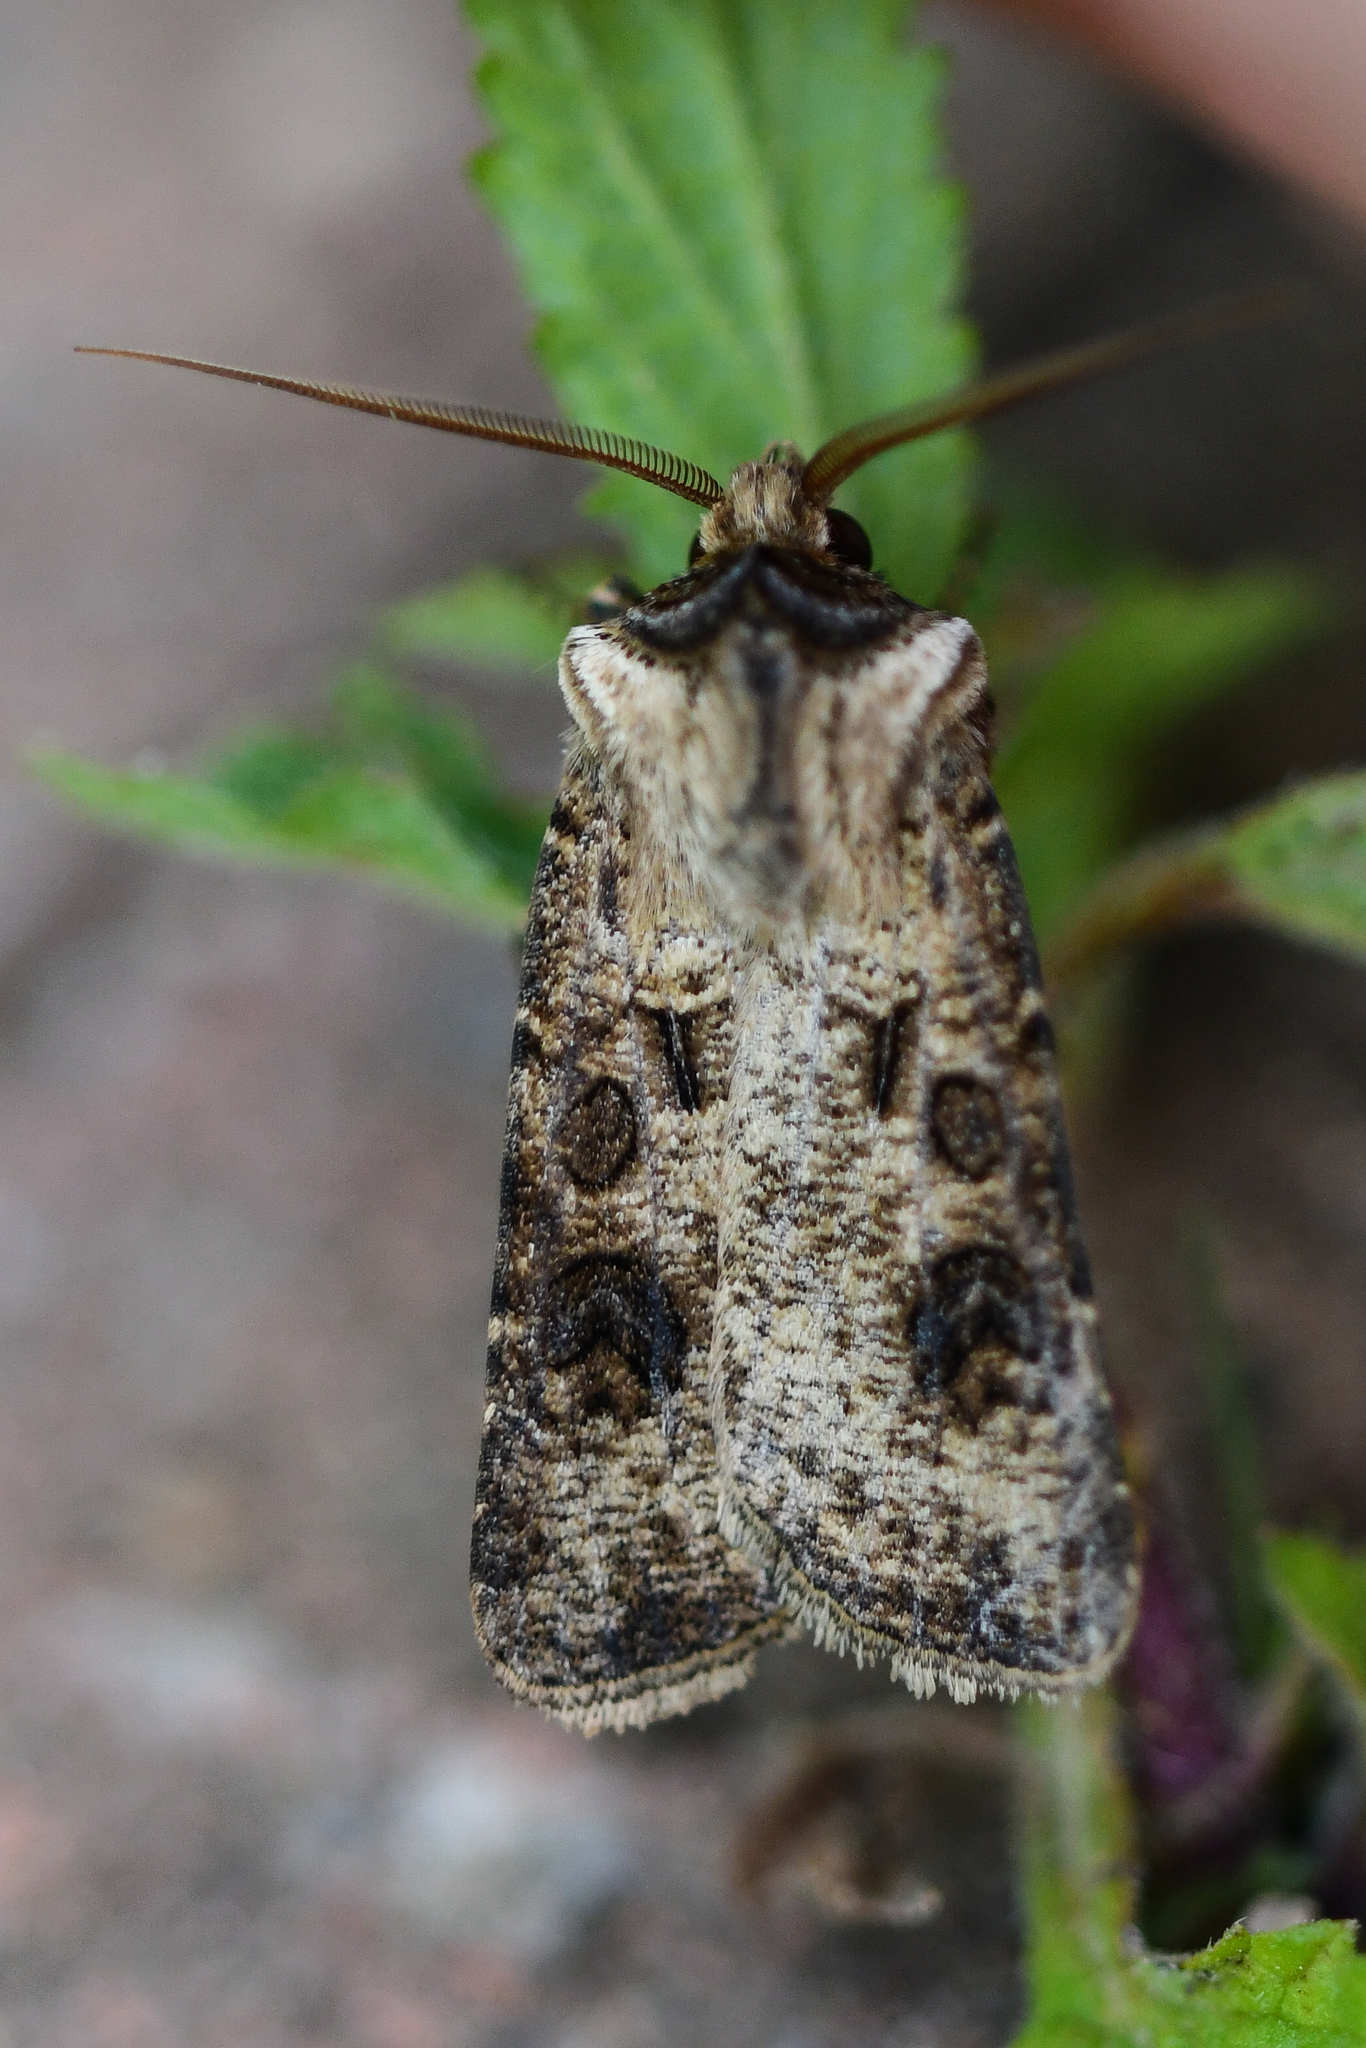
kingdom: Animalia
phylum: Arthropoda
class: Insecta
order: Lepidoptera
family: Noctuidae
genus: Agrotis
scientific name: Agrotis clavis
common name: Heart and club
